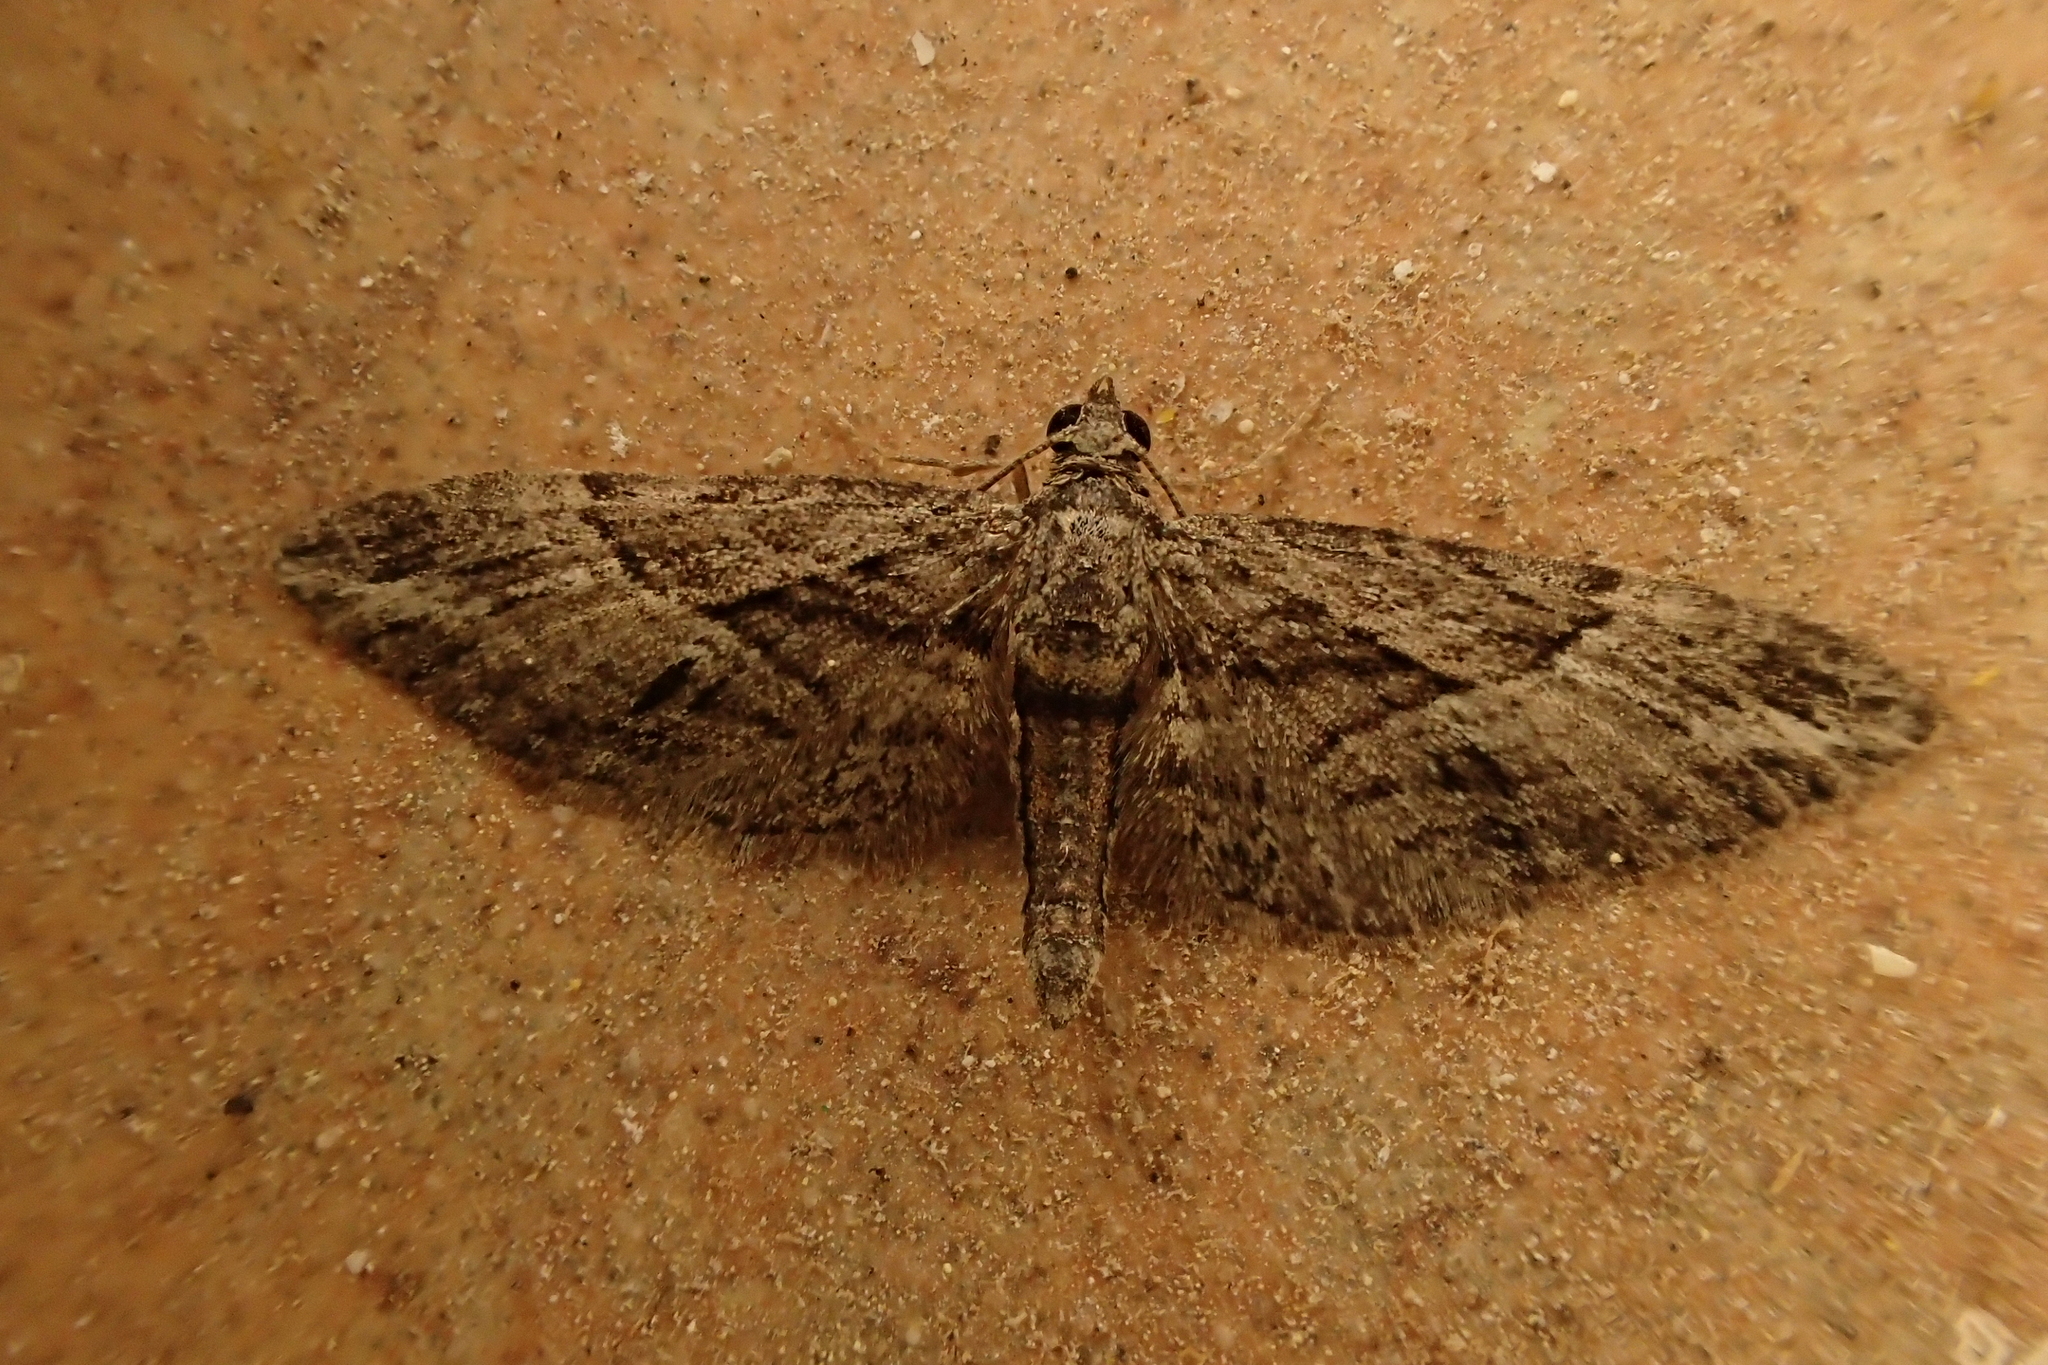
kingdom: Animalia
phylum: Arthropoda
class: Insecta
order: Lepidoptera
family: Geometridae
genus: Eupithecia
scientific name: Eupithecia oxycedrata
